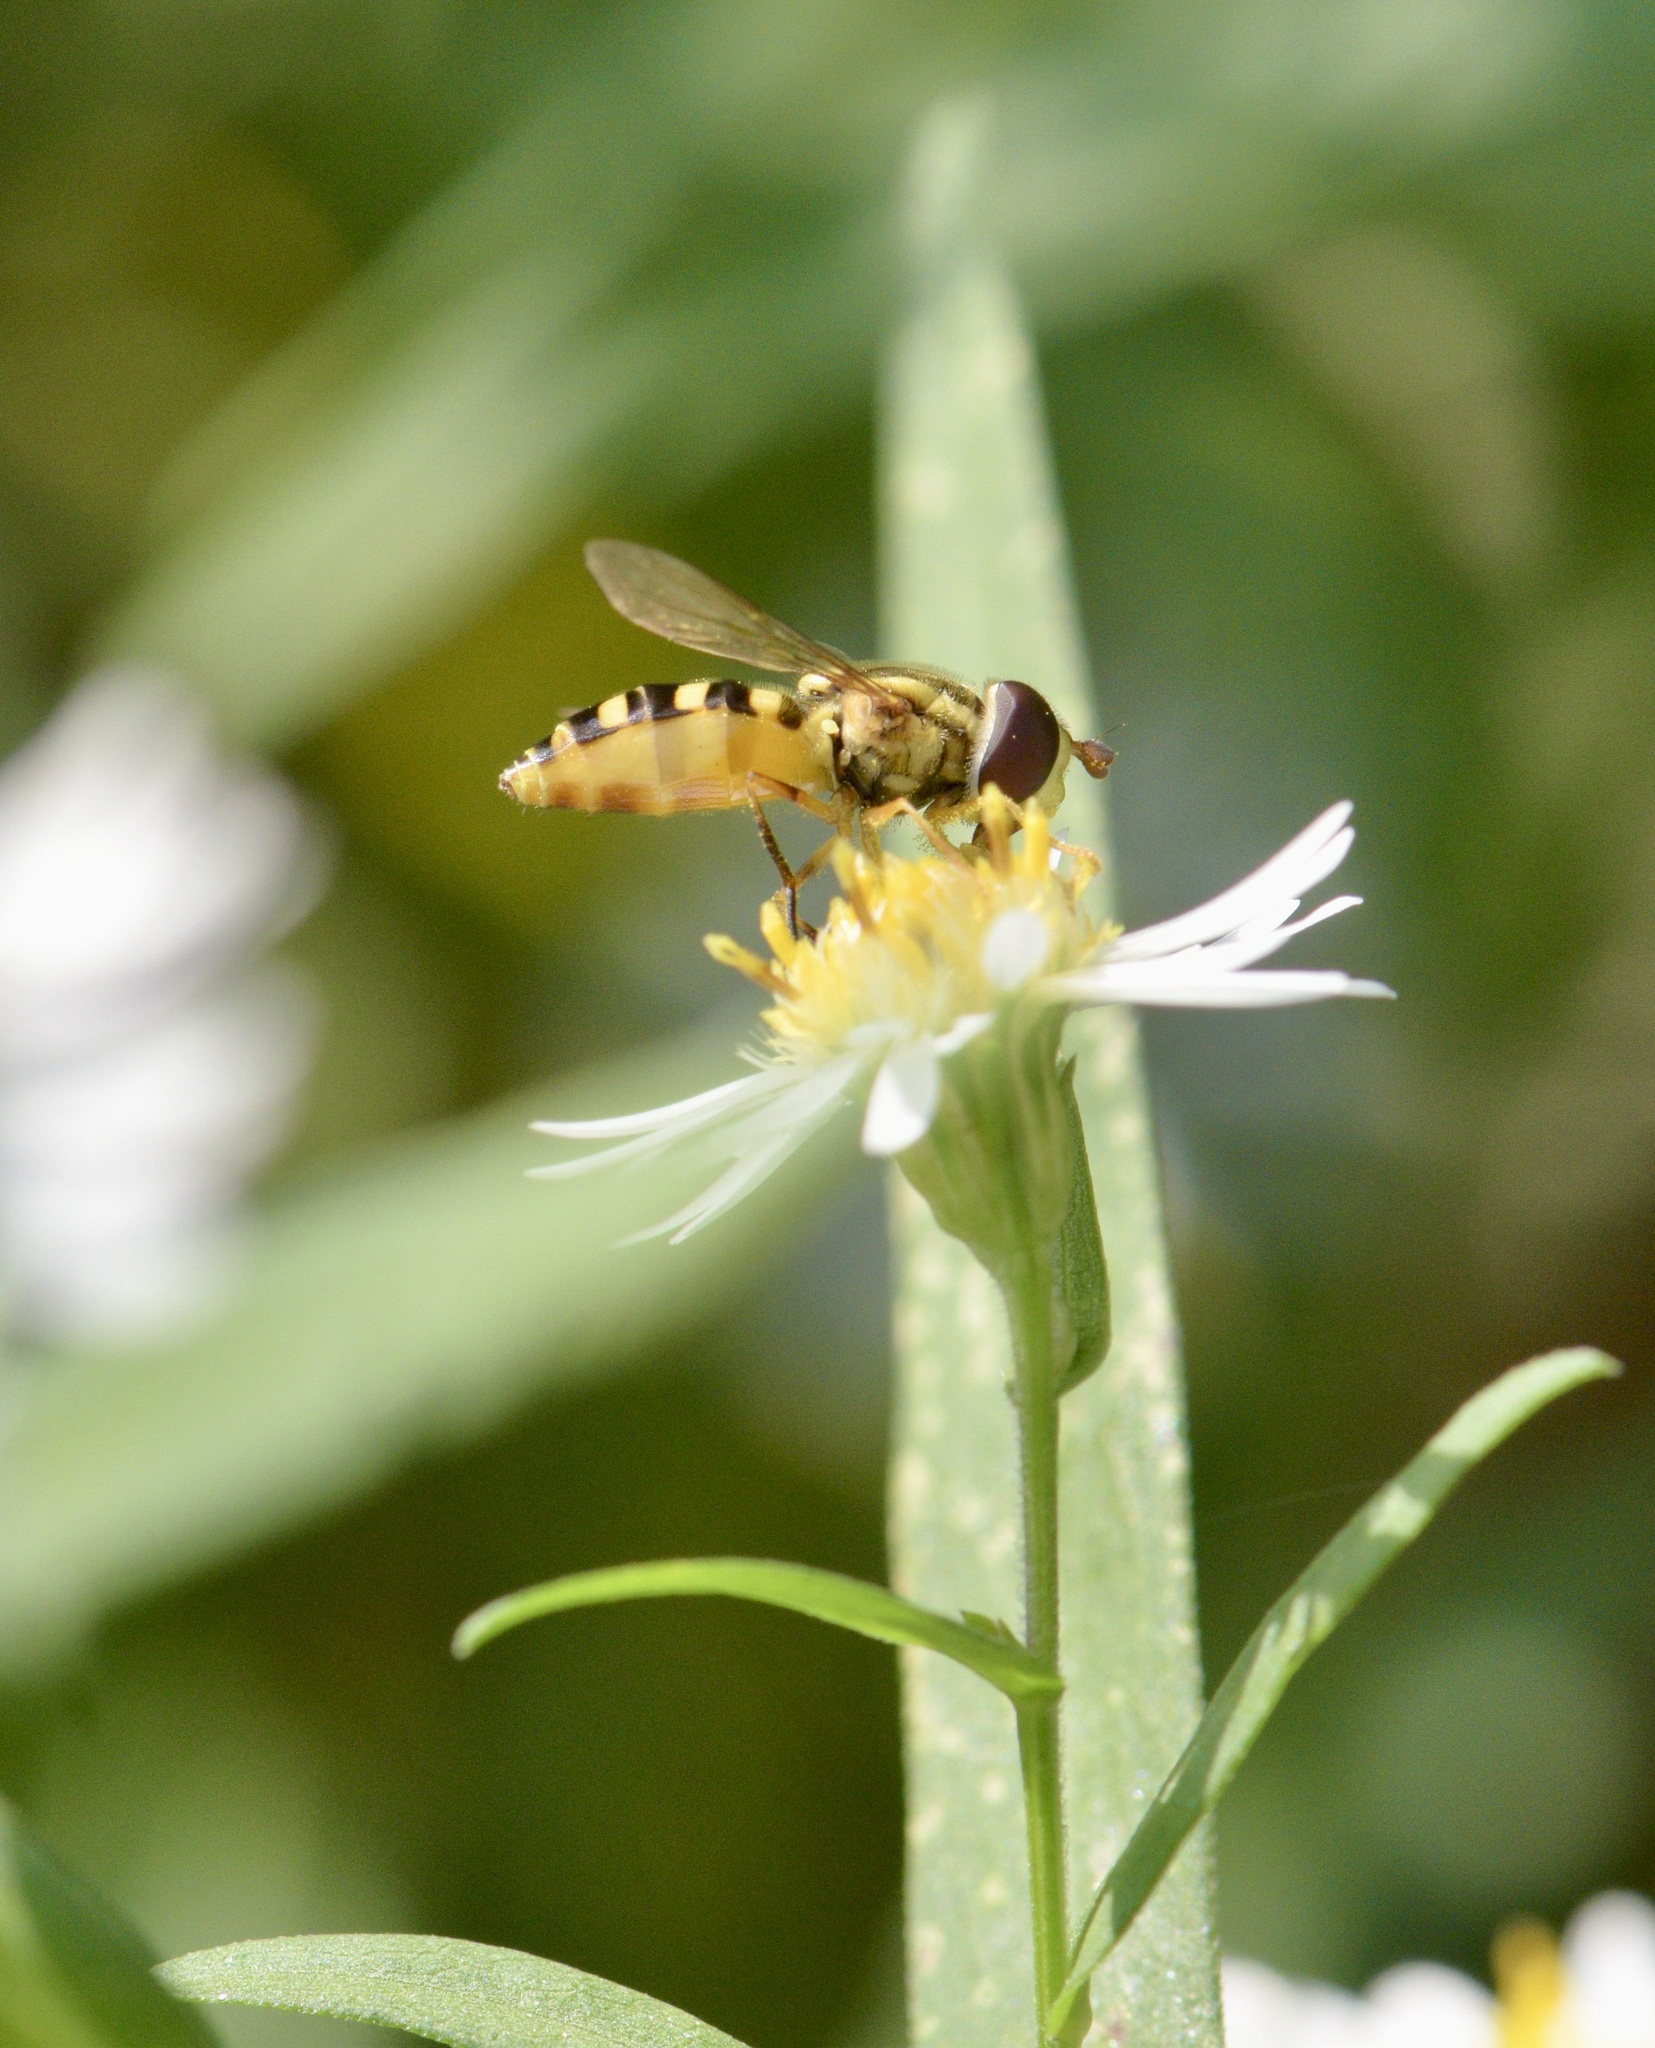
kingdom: Animalia
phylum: Arthropoda
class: Insecta
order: Diptera
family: Syrphidae
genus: Epistrophella
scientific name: Epistrophella emarginata
